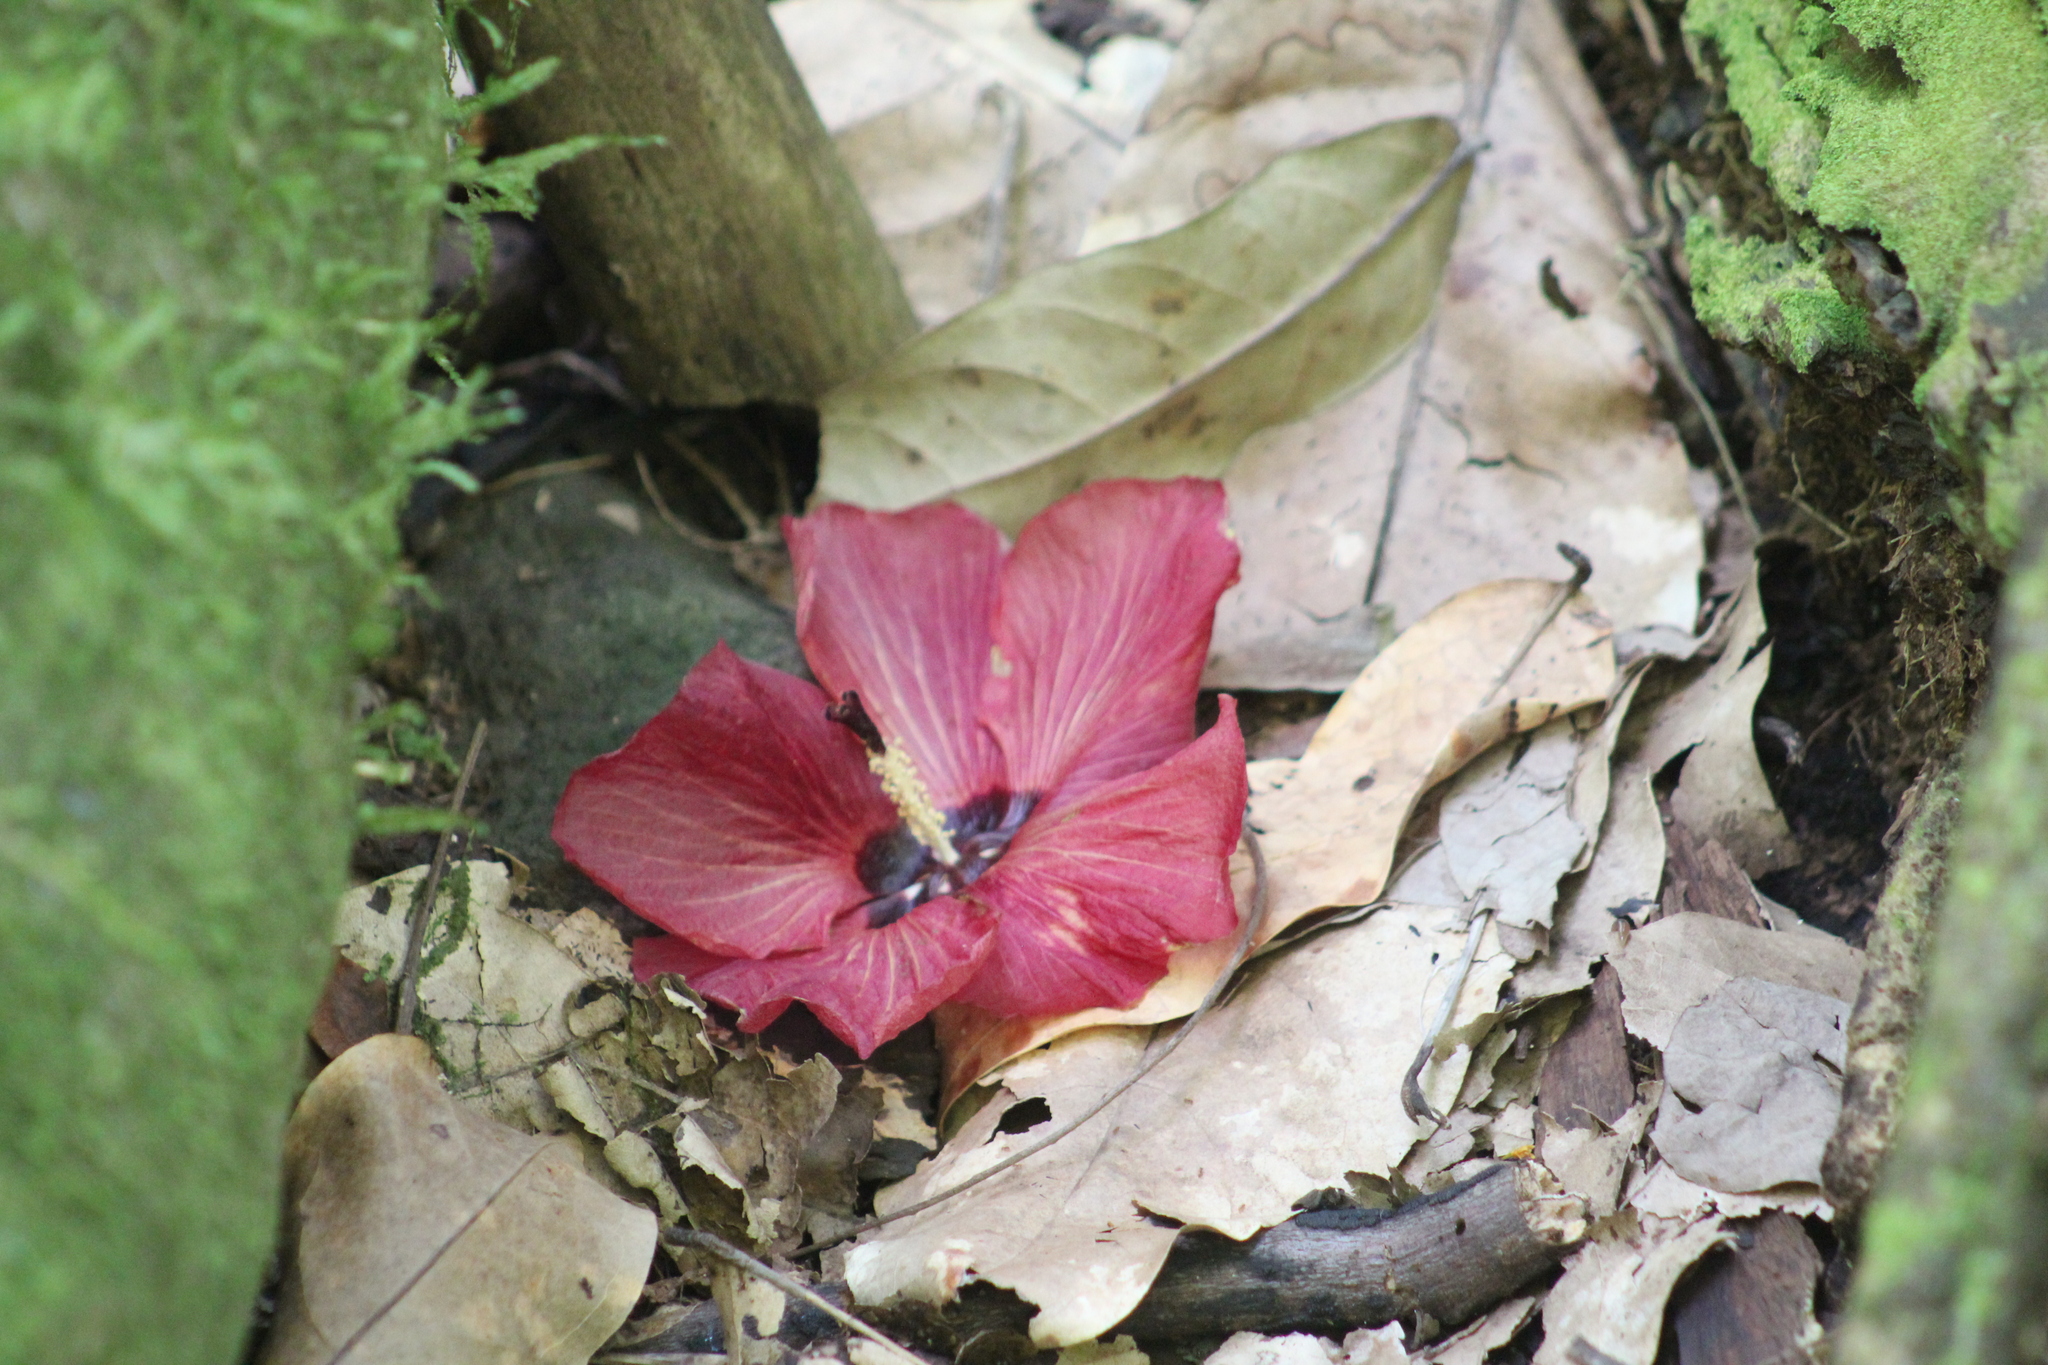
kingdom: Plantae
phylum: Tracheophyta
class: Magnoliopsida
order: Malvales
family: Malvaceae
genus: Talipariti
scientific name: Talipariti tiliaceum
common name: Sea hibiscus
